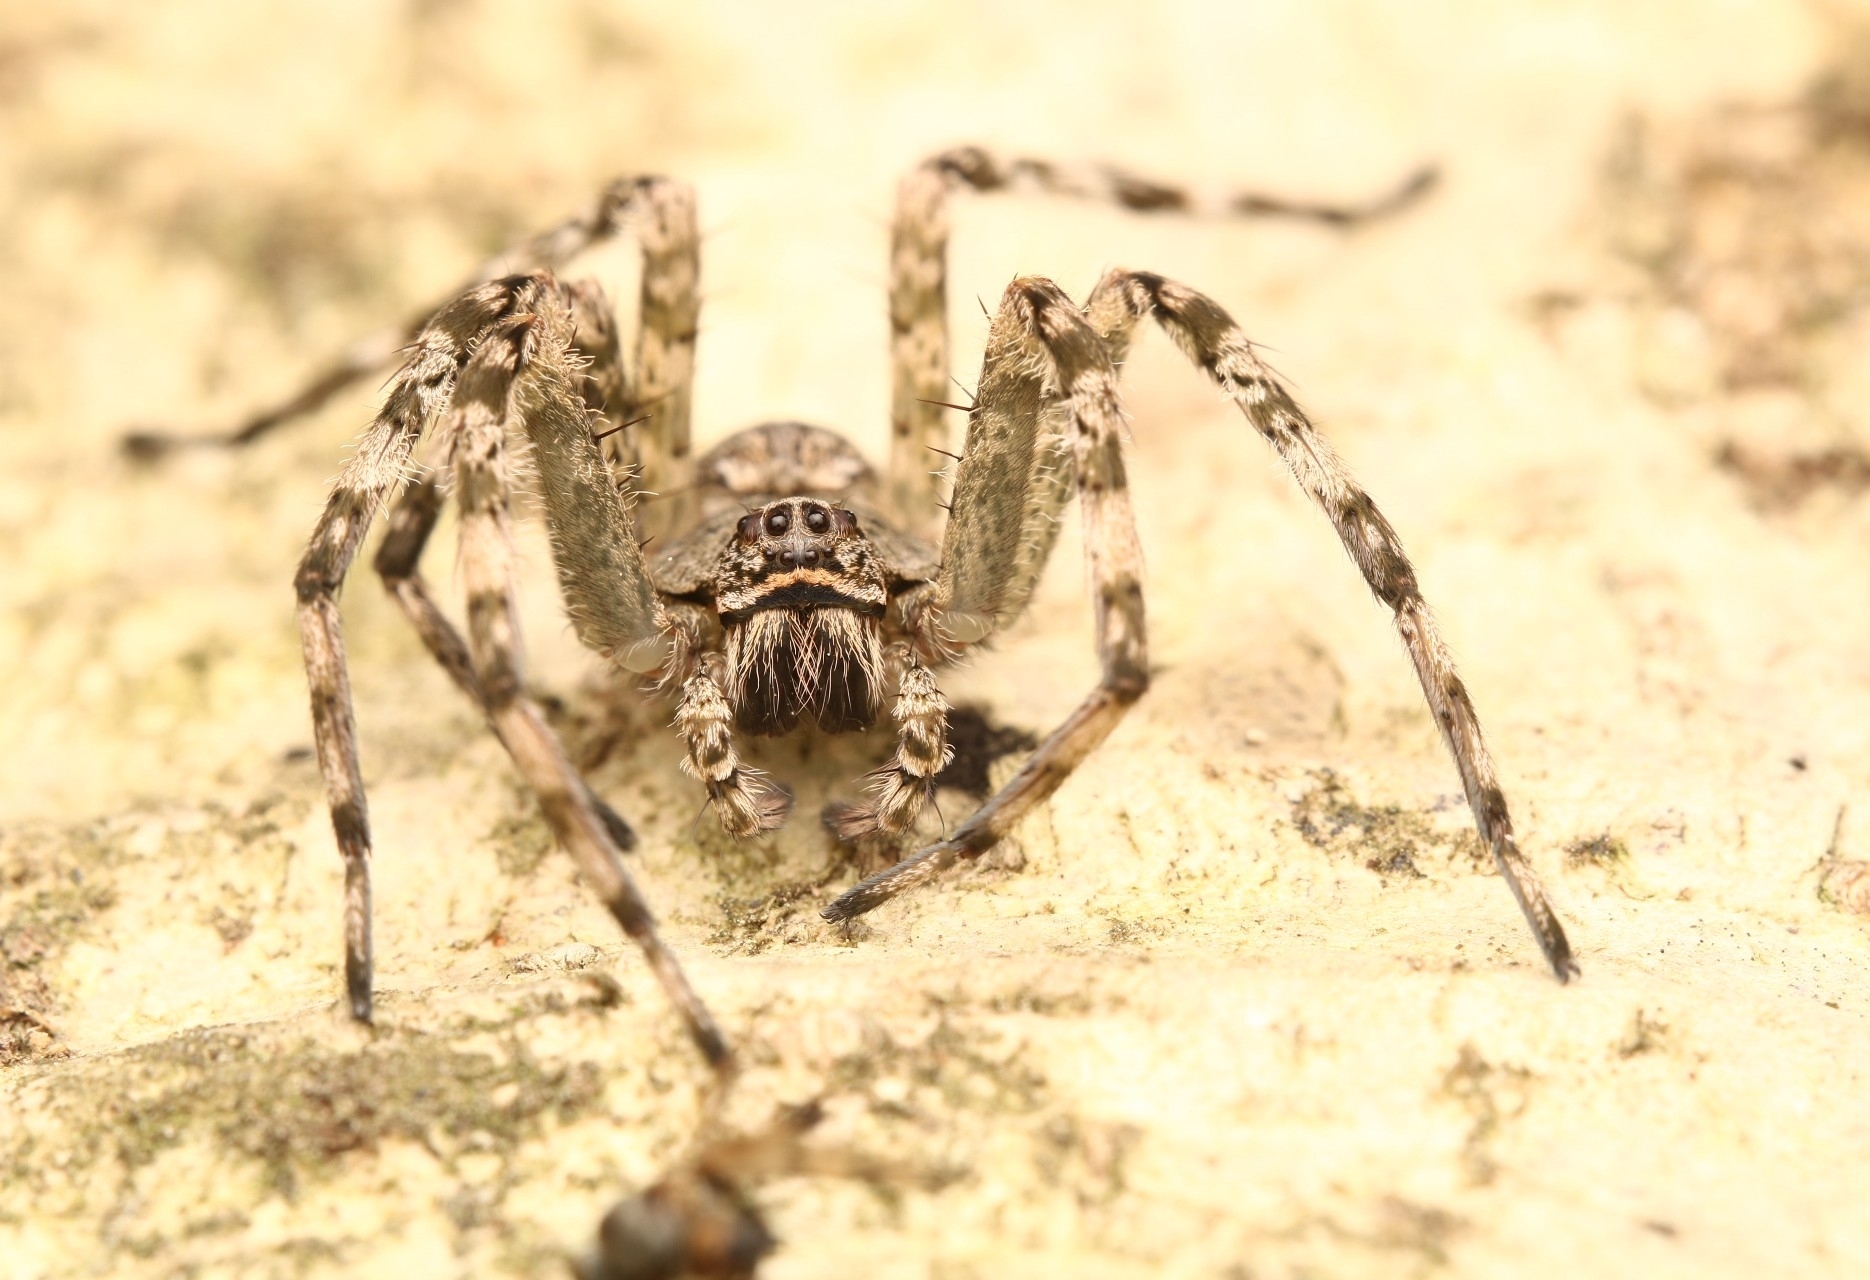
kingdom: Animalia
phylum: Arthropoda
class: Arachnida
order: Araneae
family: Pisauridae
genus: Dolomedes
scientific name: Dolomedes albineus
